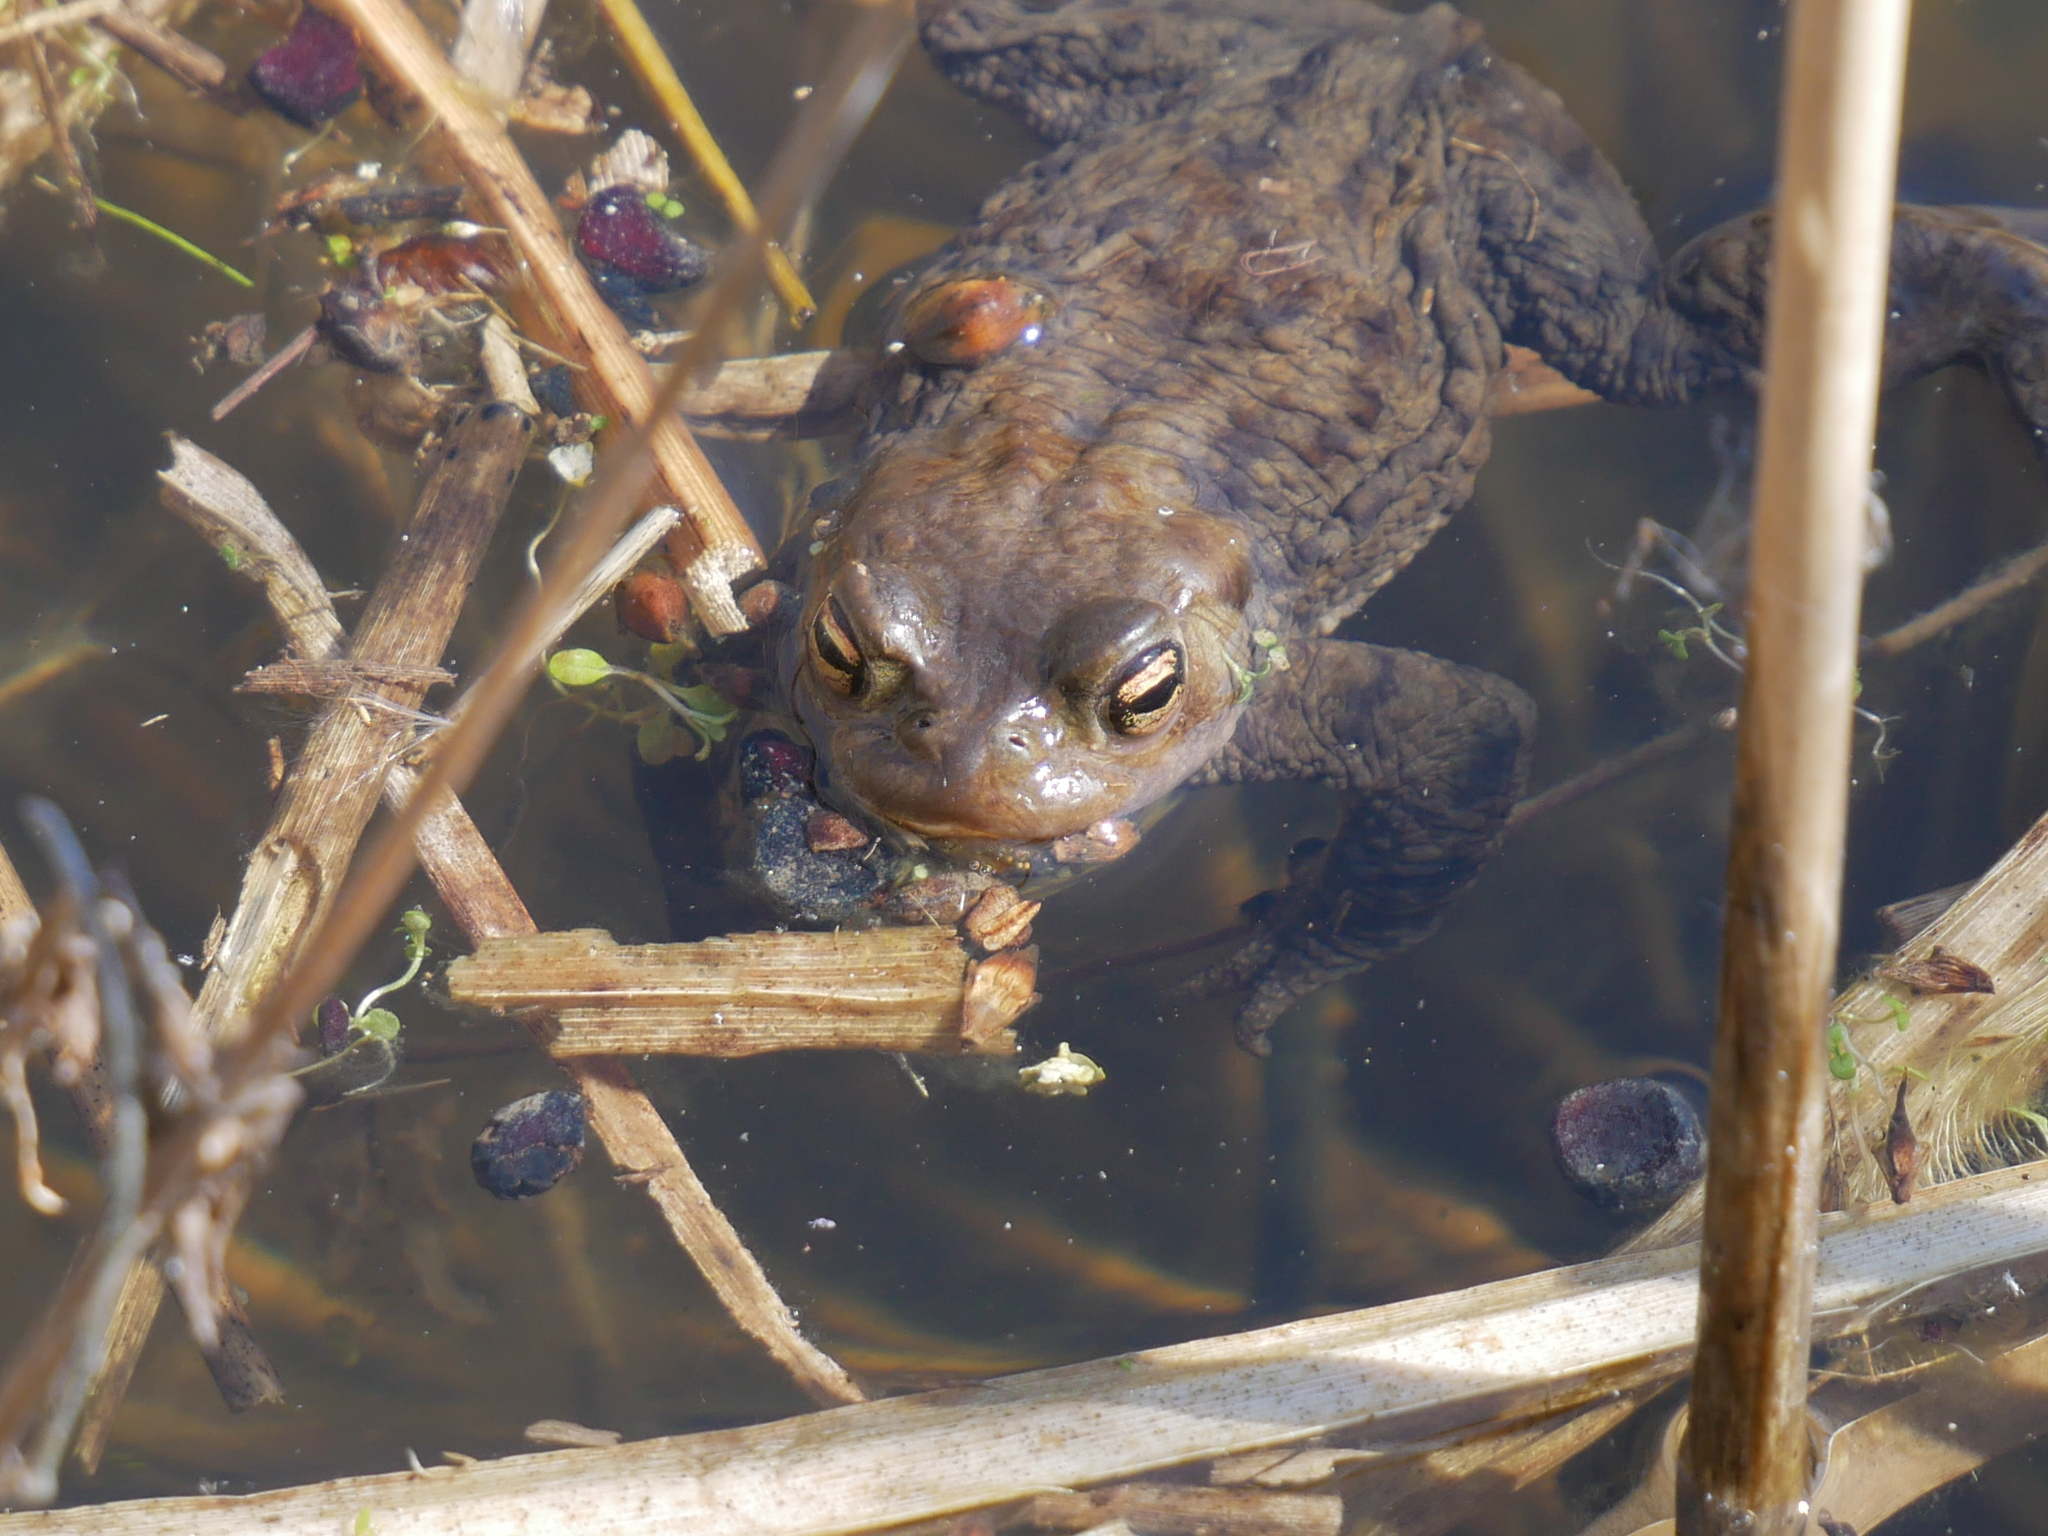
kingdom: Animalia
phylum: Chordata
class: Amphibia
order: Anura
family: Bufonidae
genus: Bufo
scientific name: Bufo bufo
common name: Common toad
